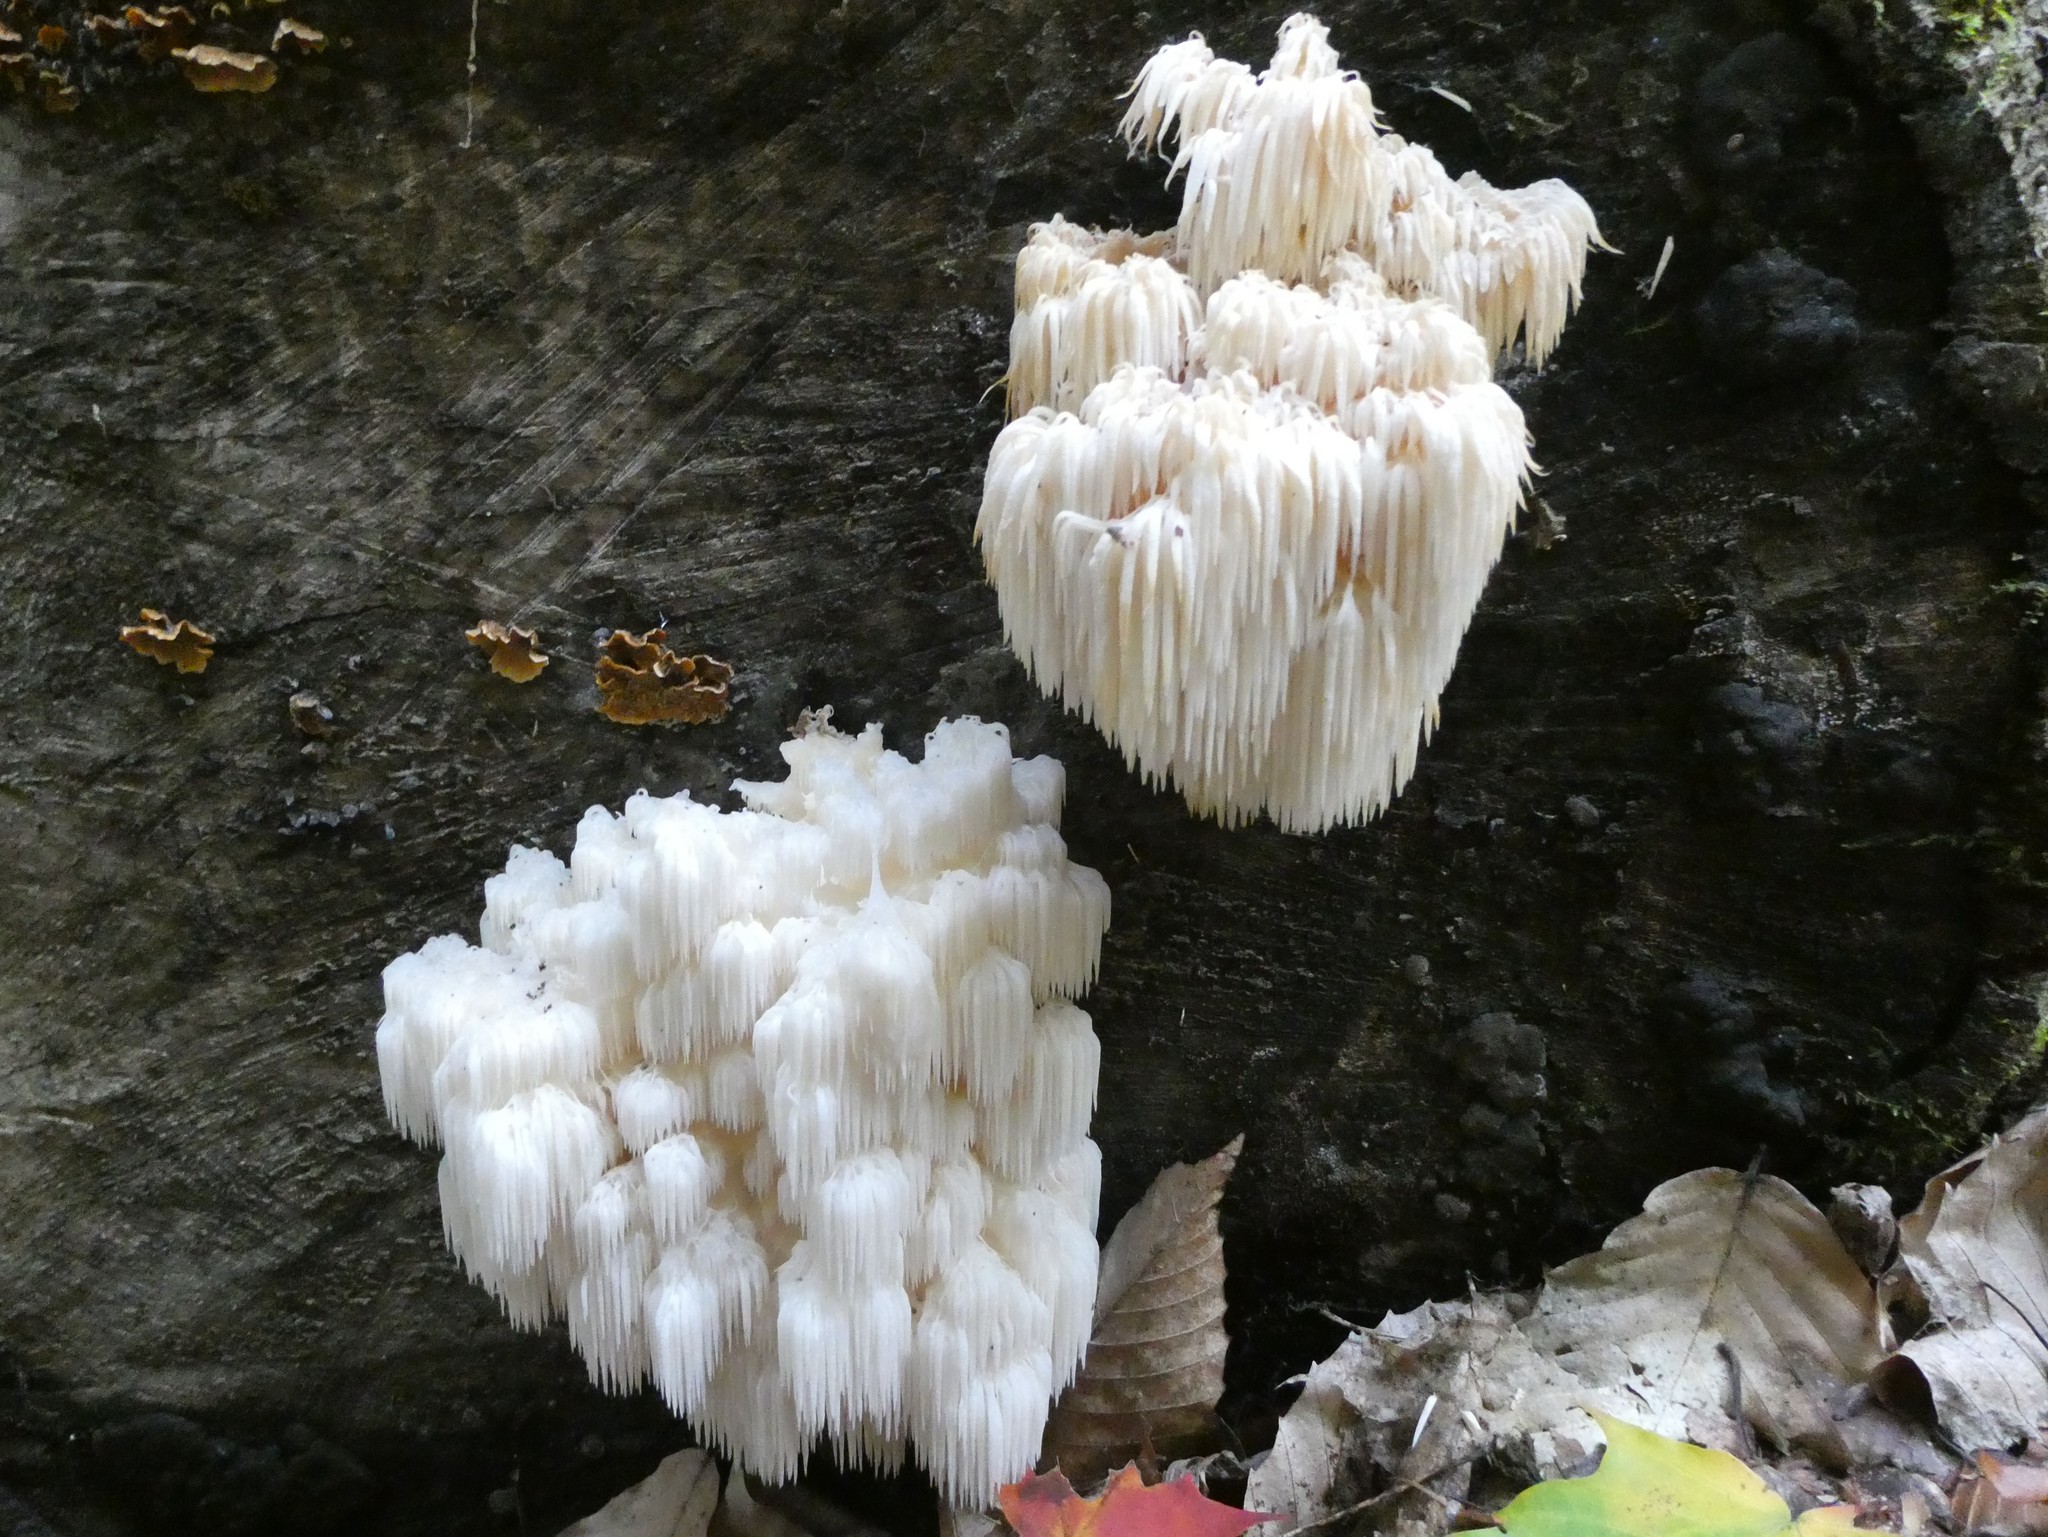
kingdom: Fungi
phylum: Basidiomycota
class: Agaricomycetes
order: Russulales
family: Hericiaceae
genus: Hericium
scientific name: Hericium americanum
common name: Bear's head tooth
